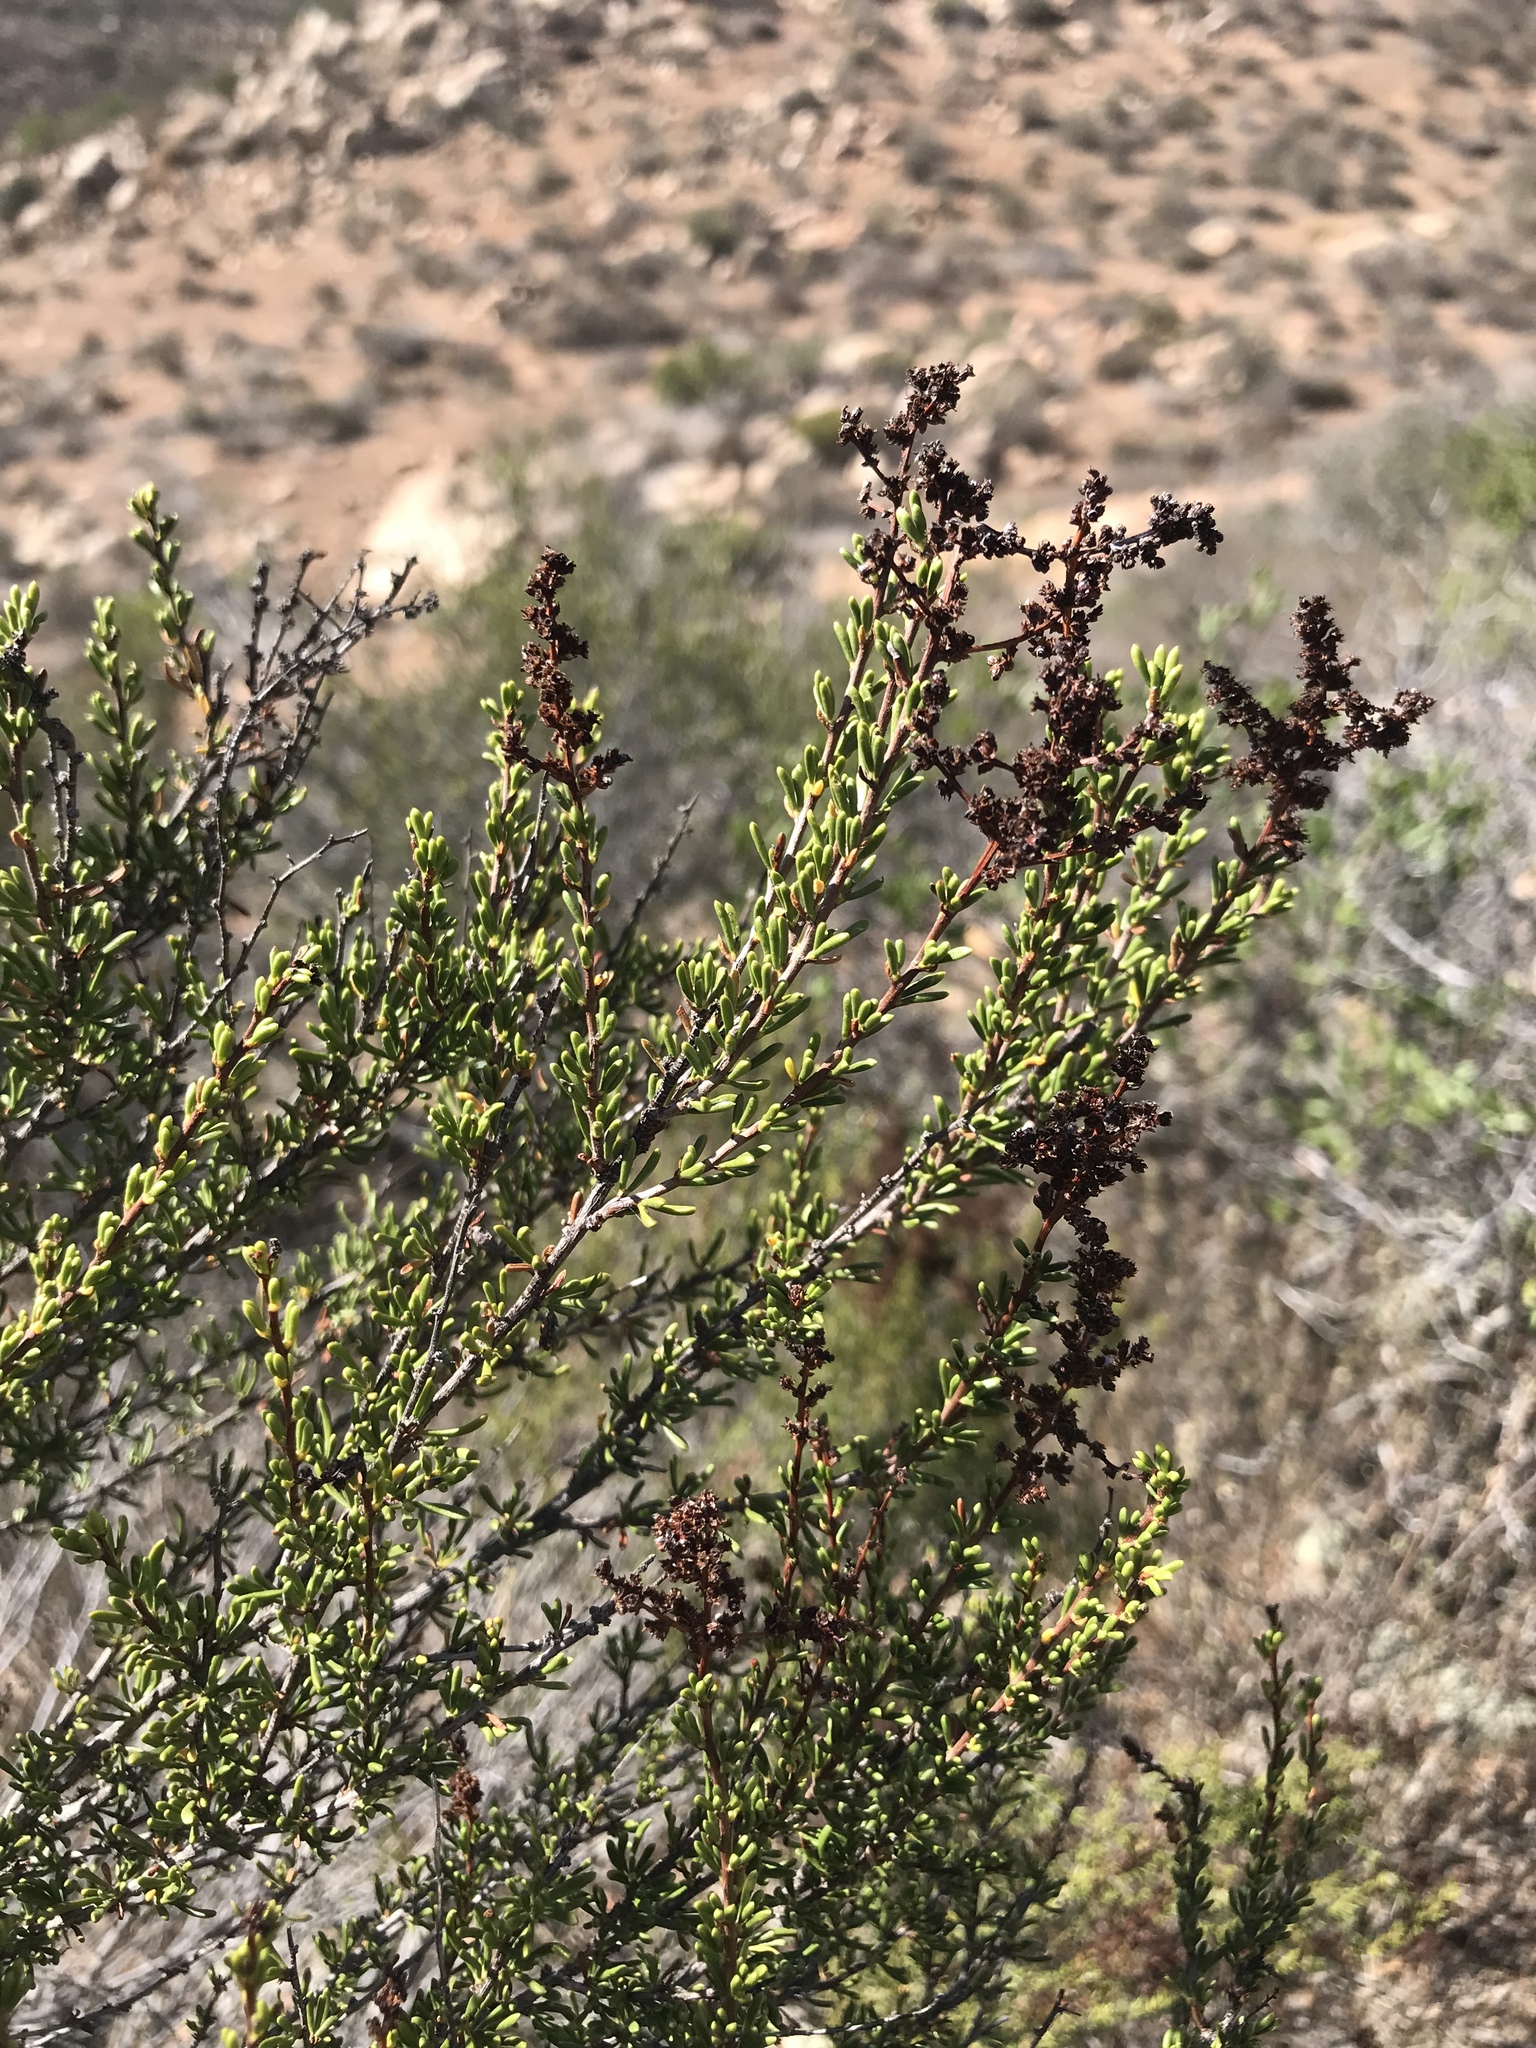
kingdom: Plantae
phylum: Tracheophyta
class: Magnoliopsida
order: Rosales
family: Rosaceae
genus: Adenostoma
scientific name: Adenostoma fasciculatum
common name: Chamise
